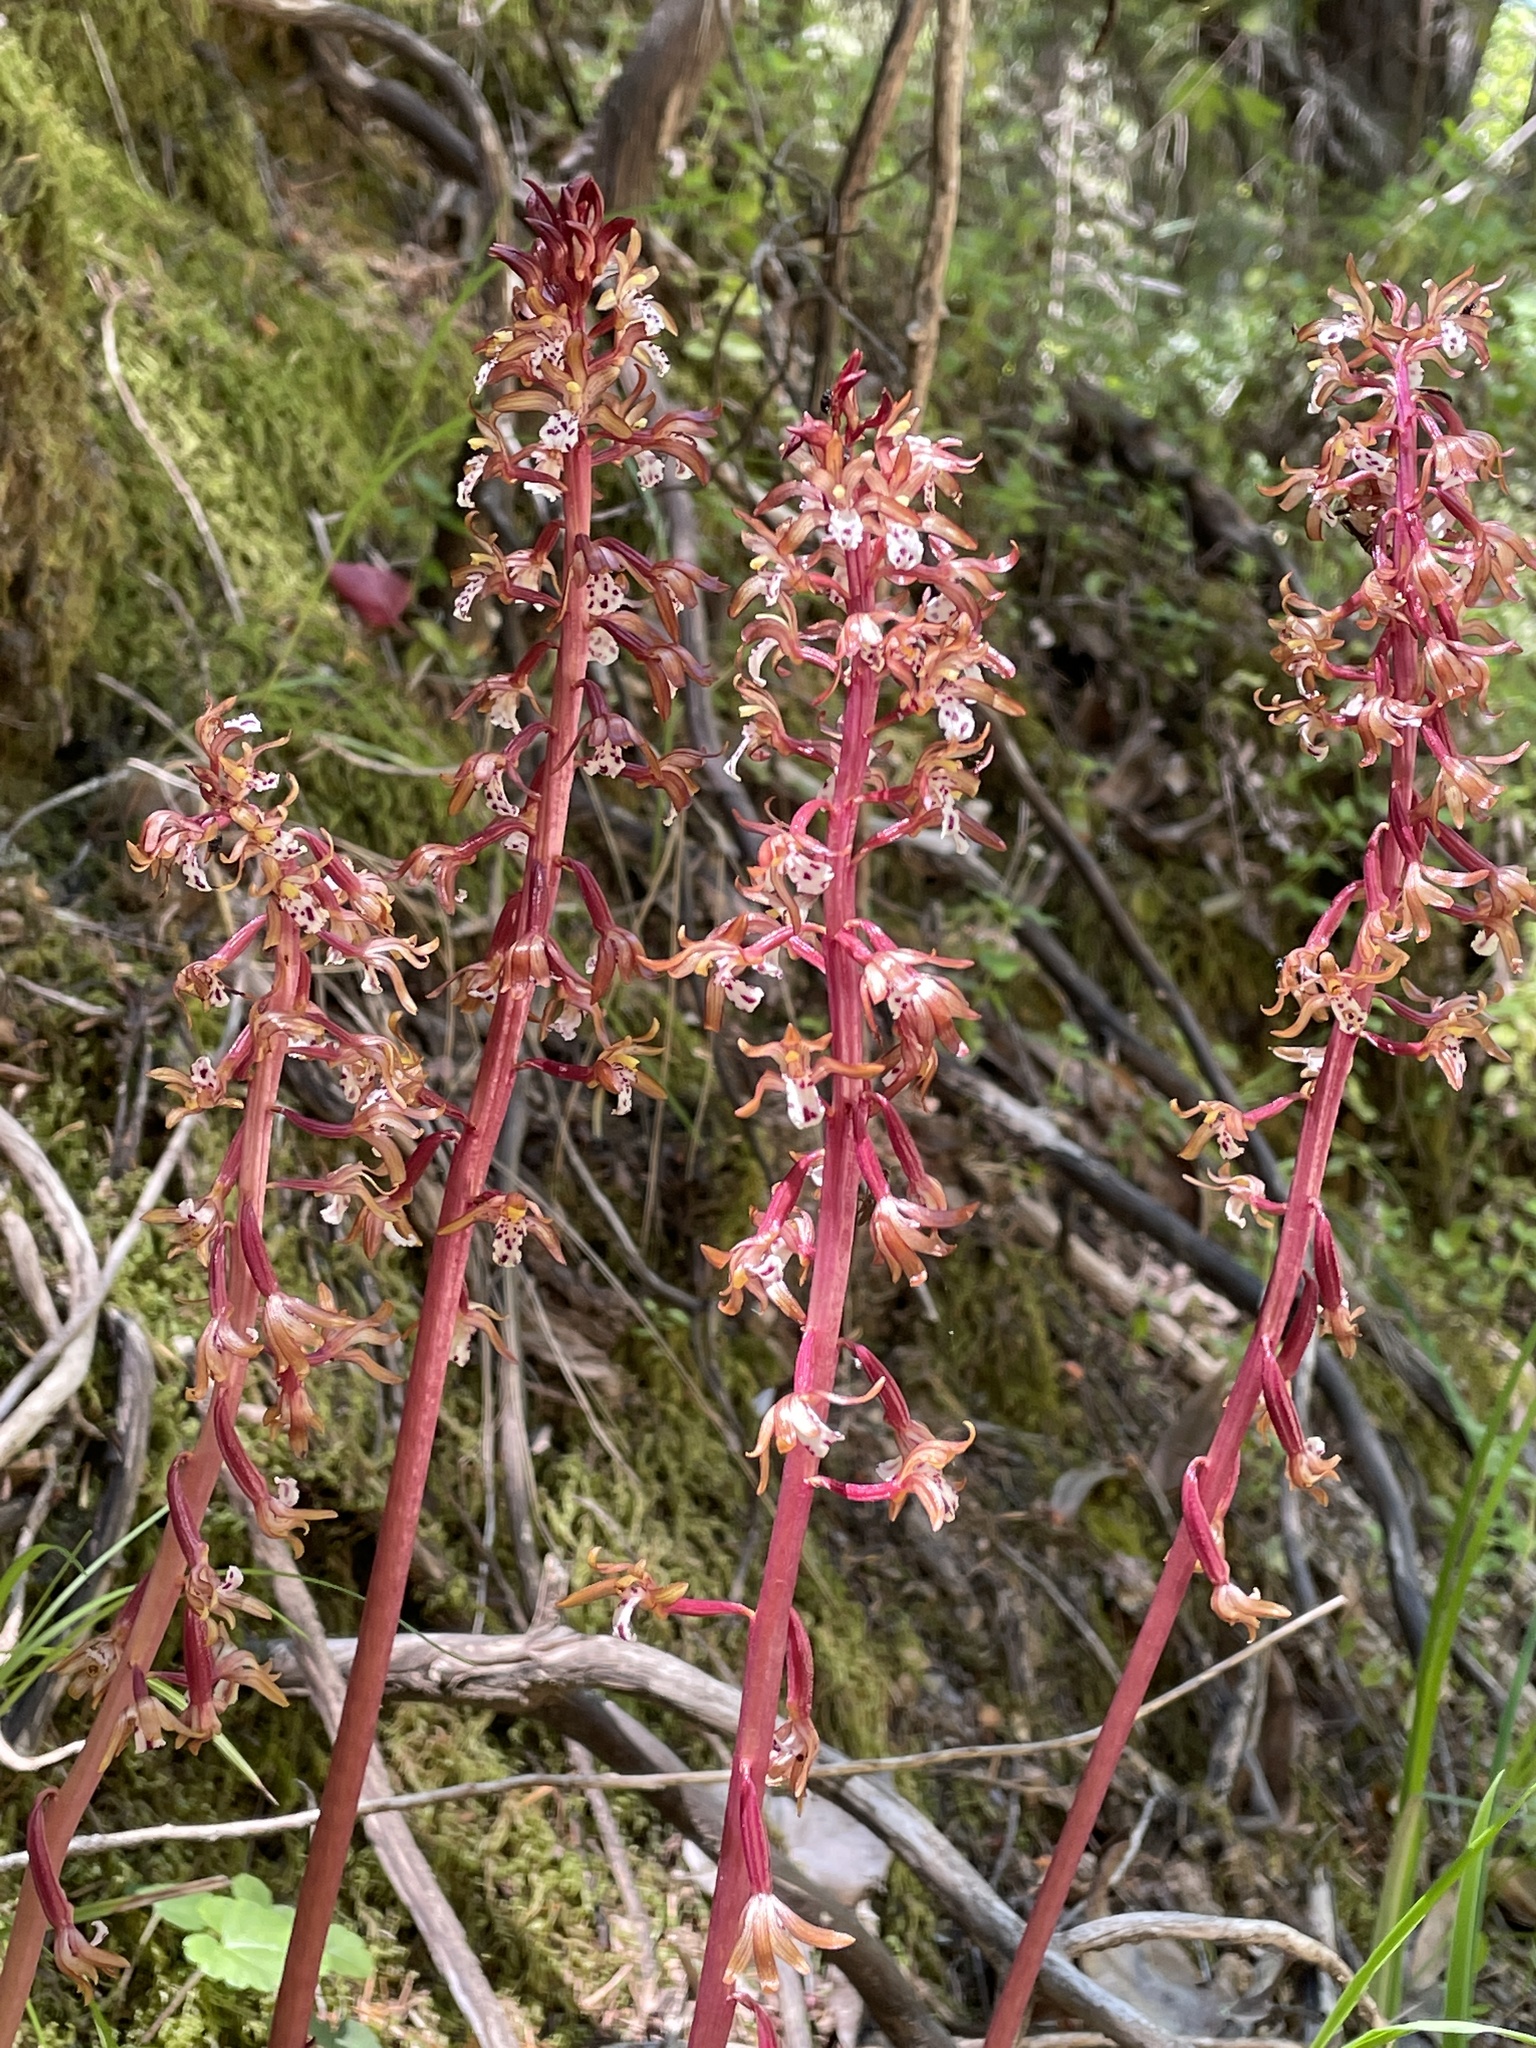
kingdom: Plantae
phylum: Tracheophyta
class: Liliopsida
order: Asparagales
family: Orchidaceae
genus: Corallorhiza
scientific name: Corallorhiza maculata
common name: Spotted coralroot
